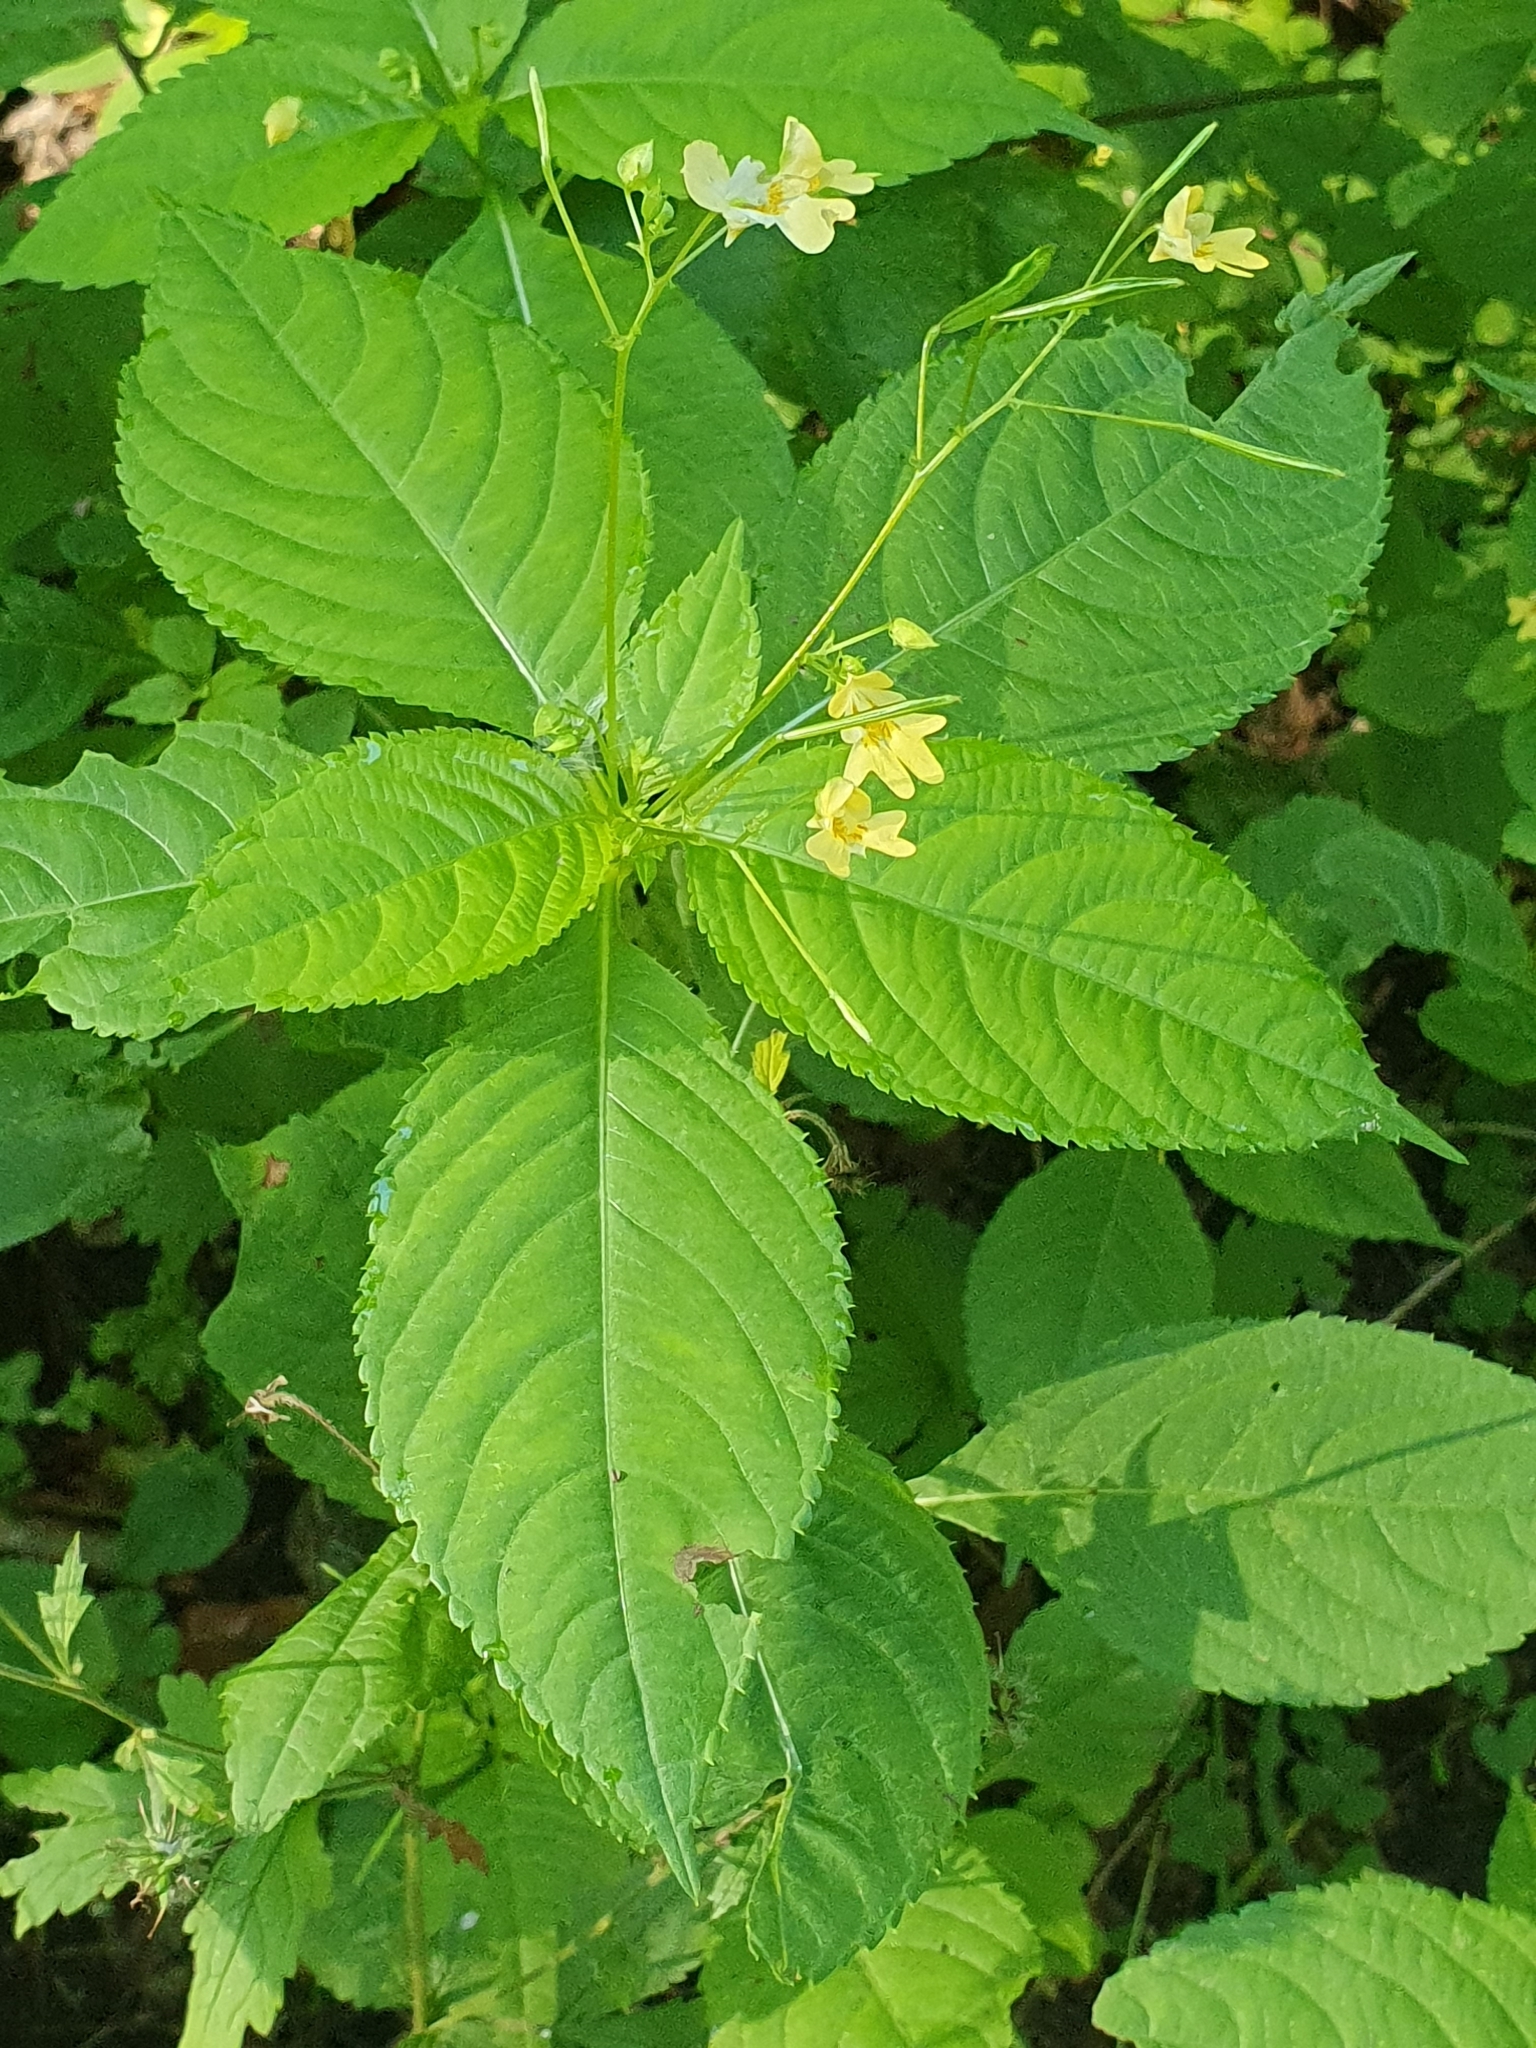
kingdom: Plantae
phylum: Tracheophyta
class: Magnoliopsida
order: Ericales
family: Balsaminaceae
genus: Impatiens
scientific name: Impatiens parviflora
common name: Small balsam
